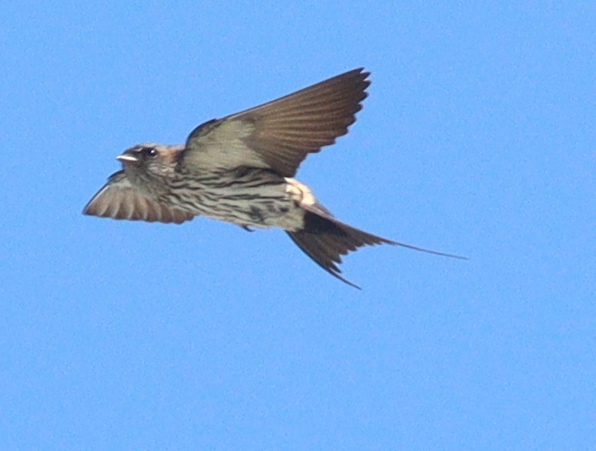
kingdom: Animalia
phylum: Chordata
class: Aves
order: Passeriformes
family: Hirundinidae
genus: Cecropis
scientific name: Cecropis striolata
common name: Striated swallow
